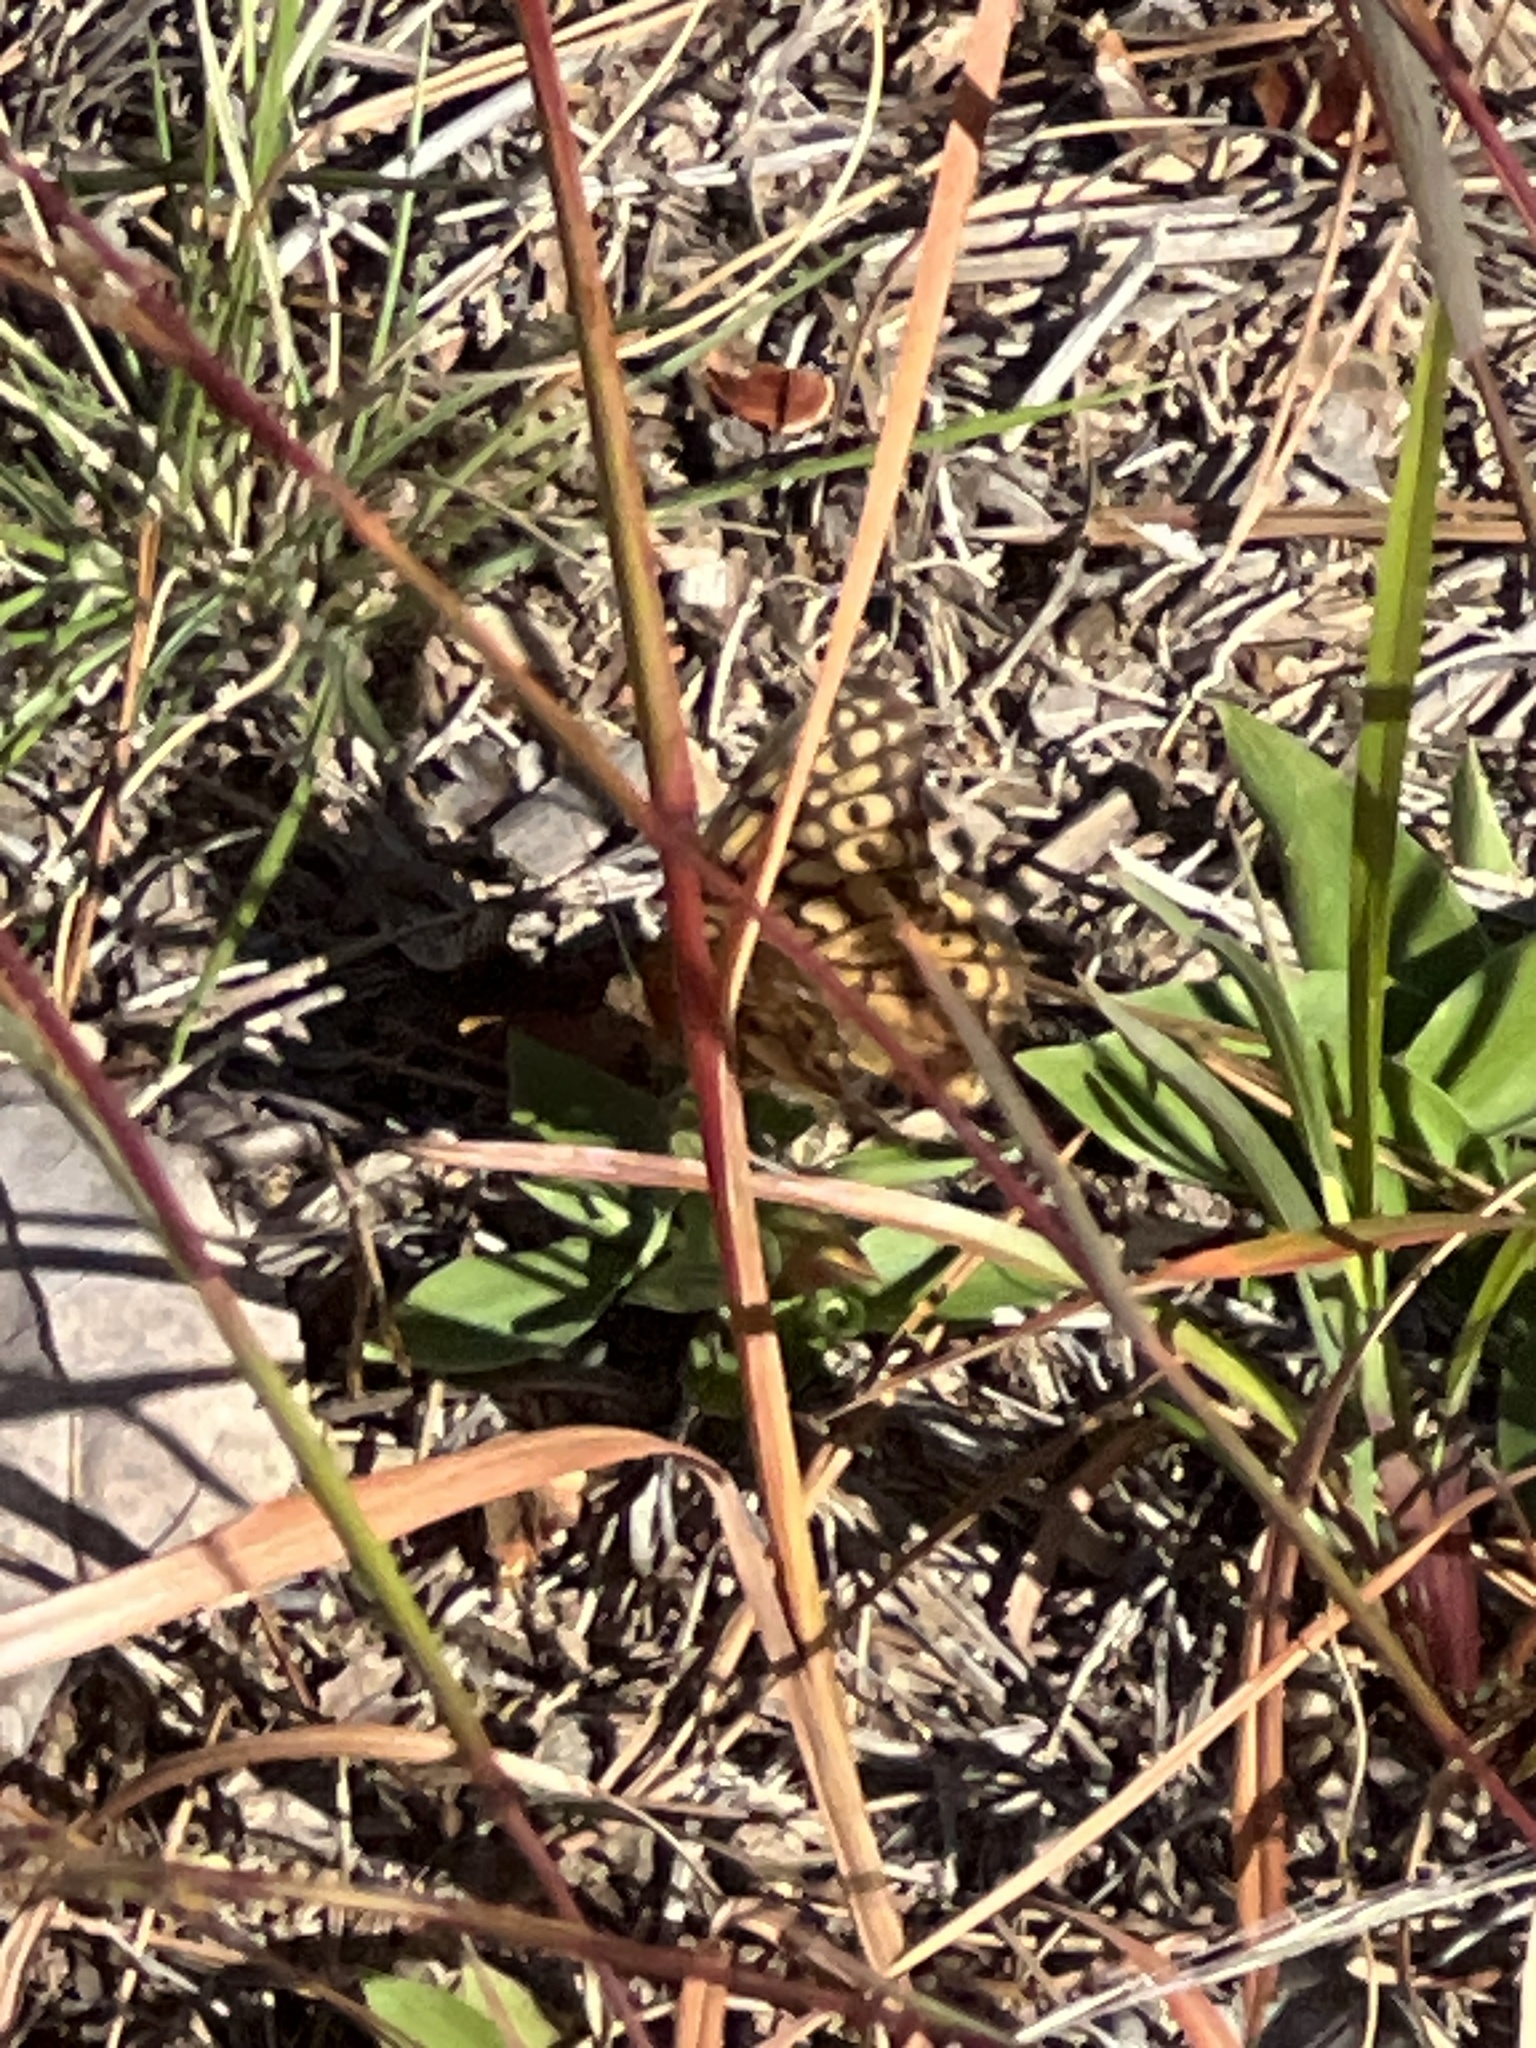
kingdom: Animalia
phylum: Arthropoda
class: Insecta
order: Lepidoptera
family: Nymphalidae
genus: Euptoieta
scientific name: Euptoieta claudia
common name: Variegated fritillary
